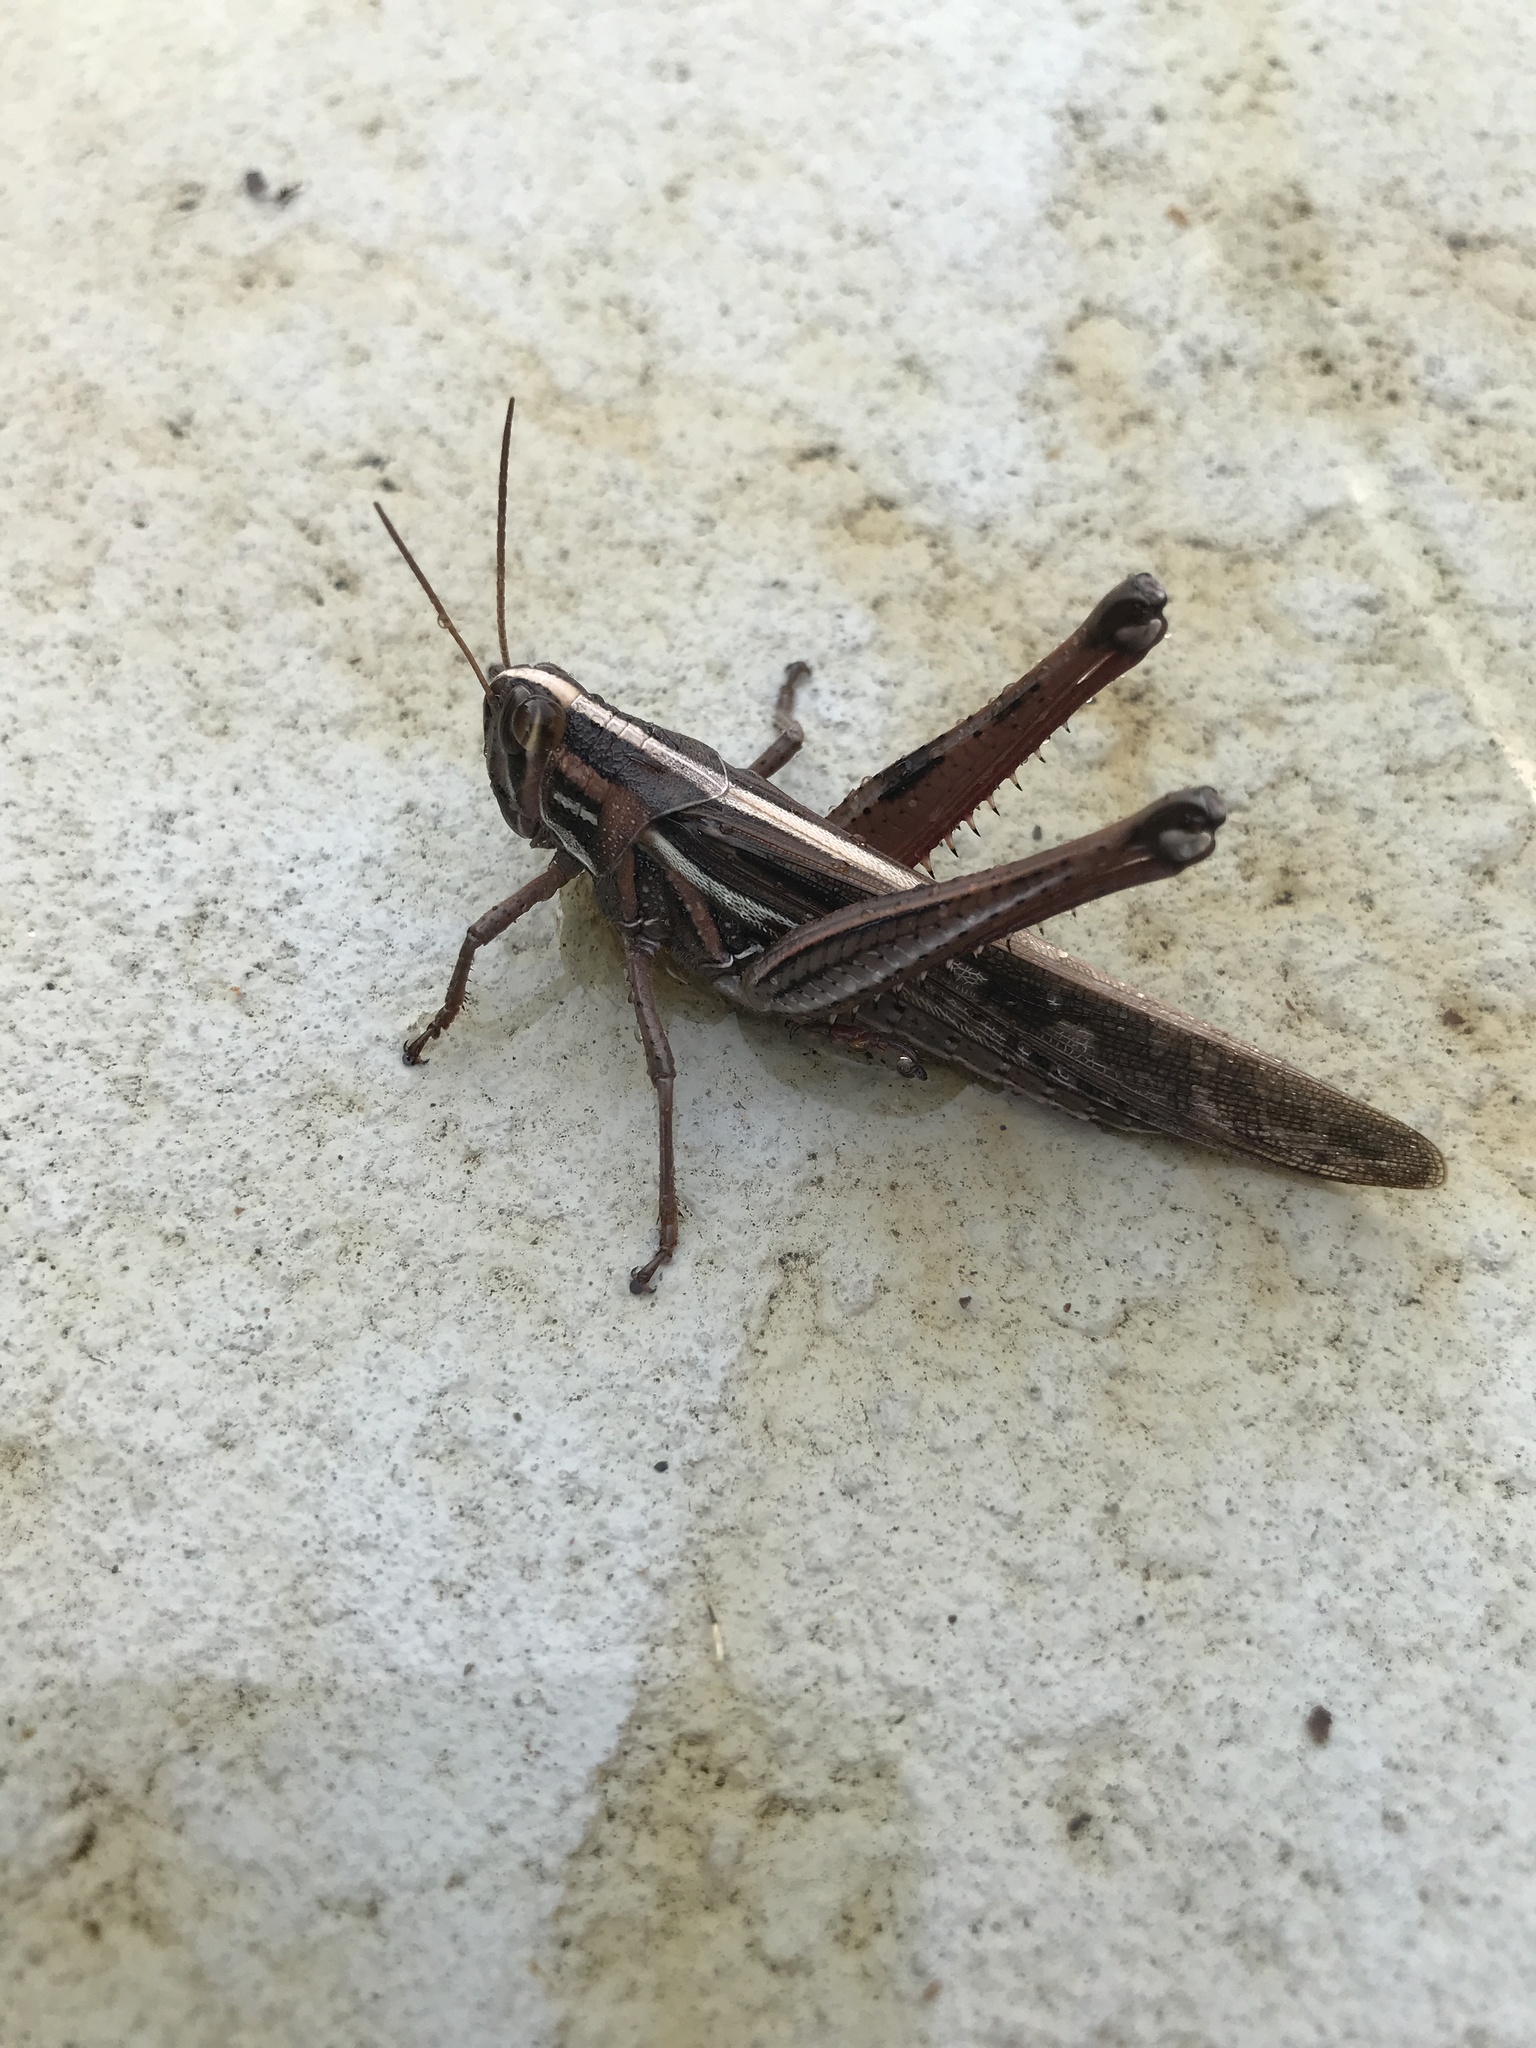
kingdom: Animalia
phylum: Arthropoda
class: Insecta
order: Orthoptera
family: Acrididae
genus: Schistocerca
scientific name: Schistocerca americana
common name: American bird locust
